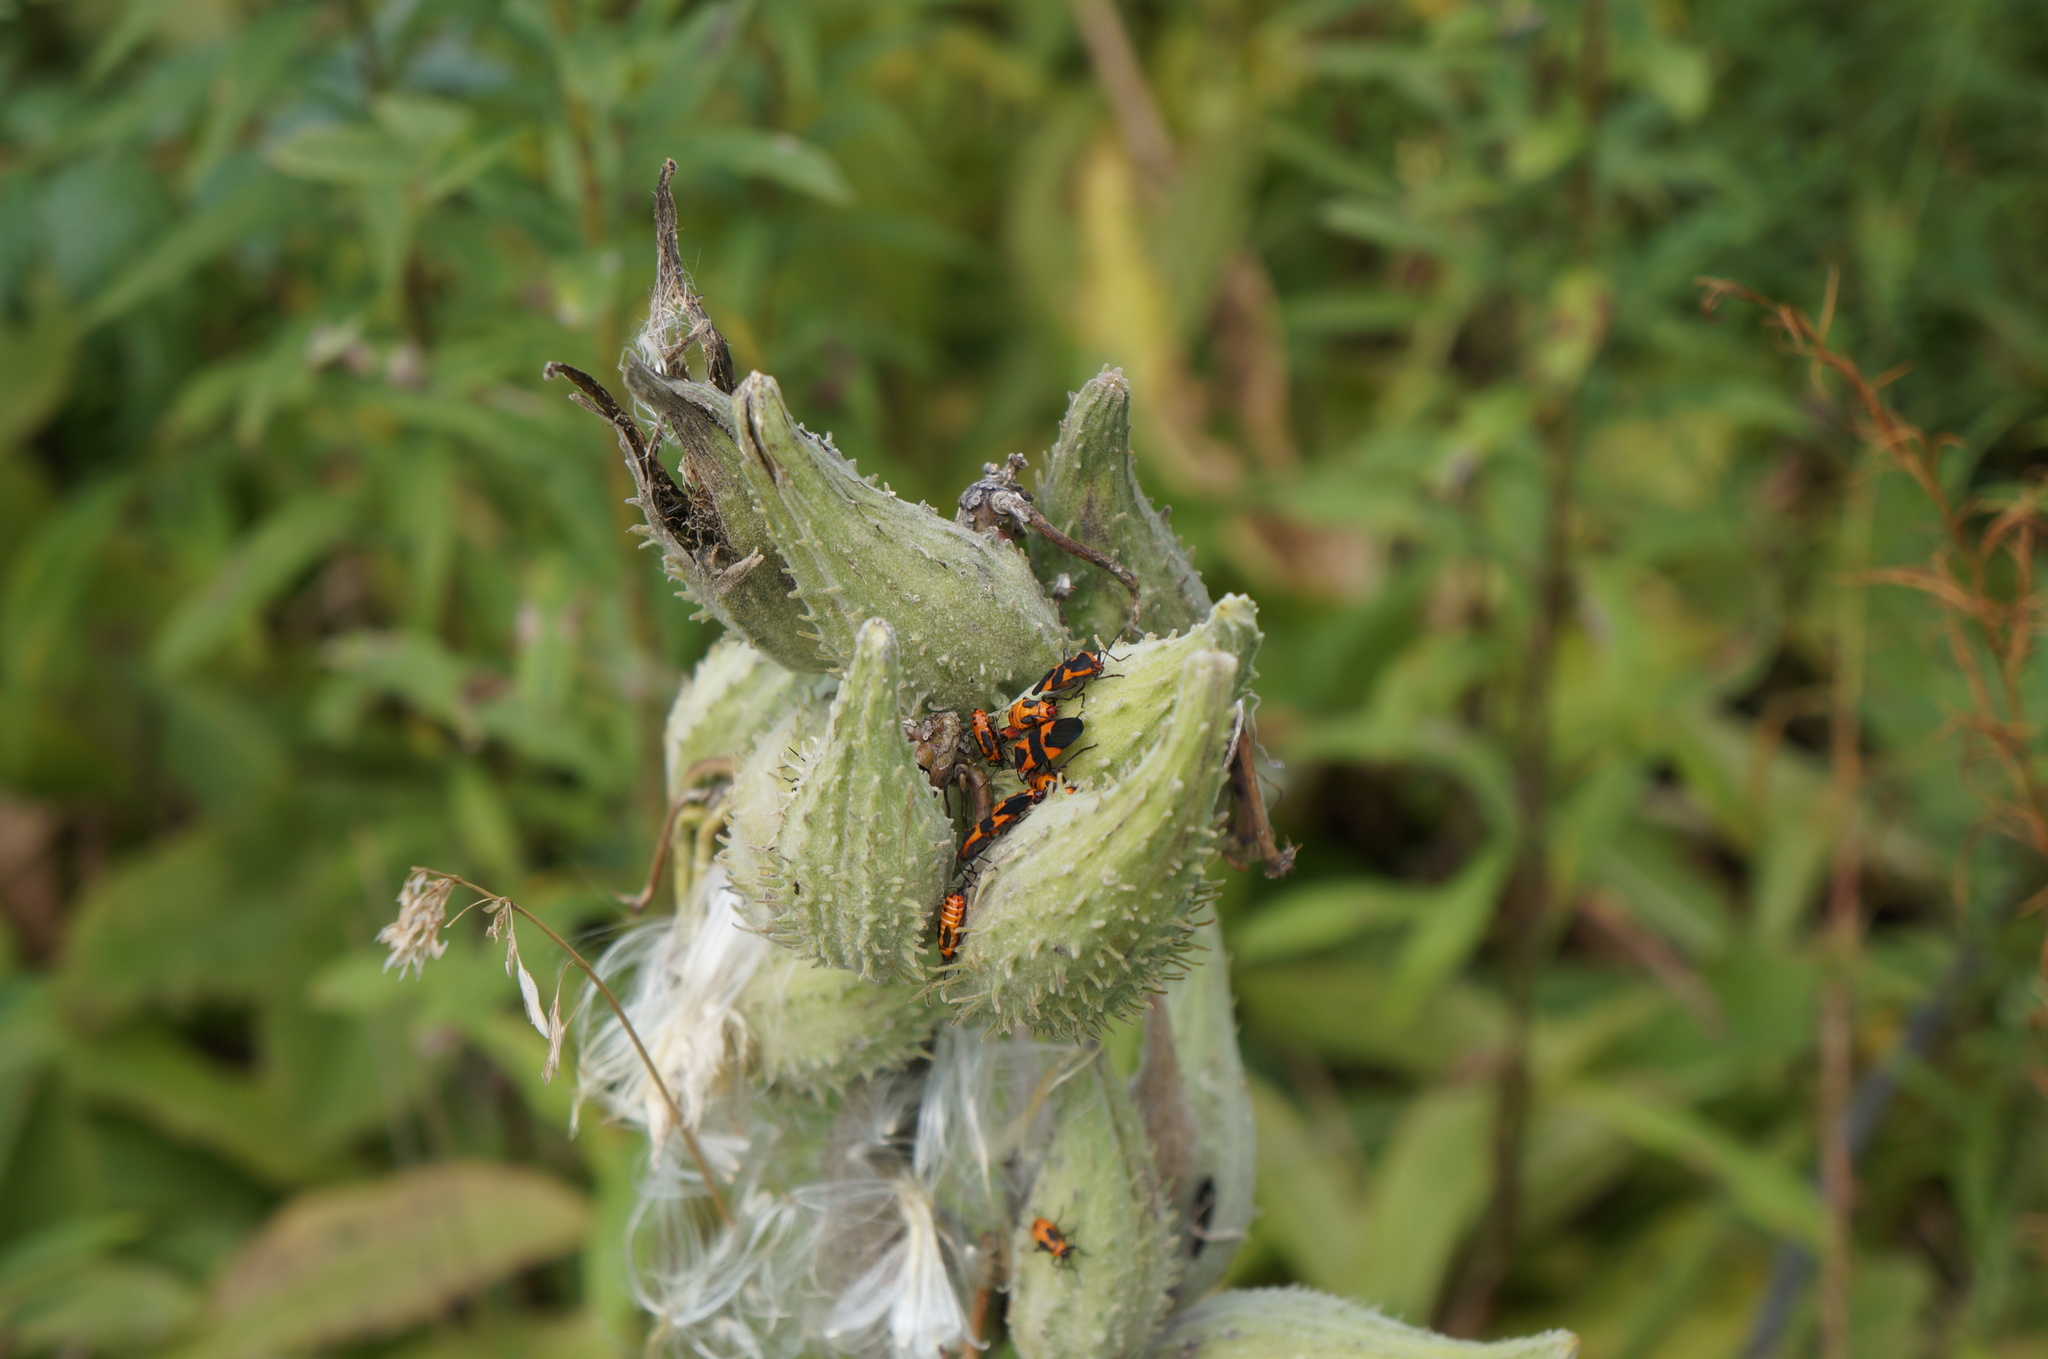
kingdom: Plantae
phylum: Tracheophyta
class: Magnoliopsida
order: Gentianales
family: Apocynaceae
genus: Asclepias
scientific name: Asclepias syriaca
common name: Common milkweed
